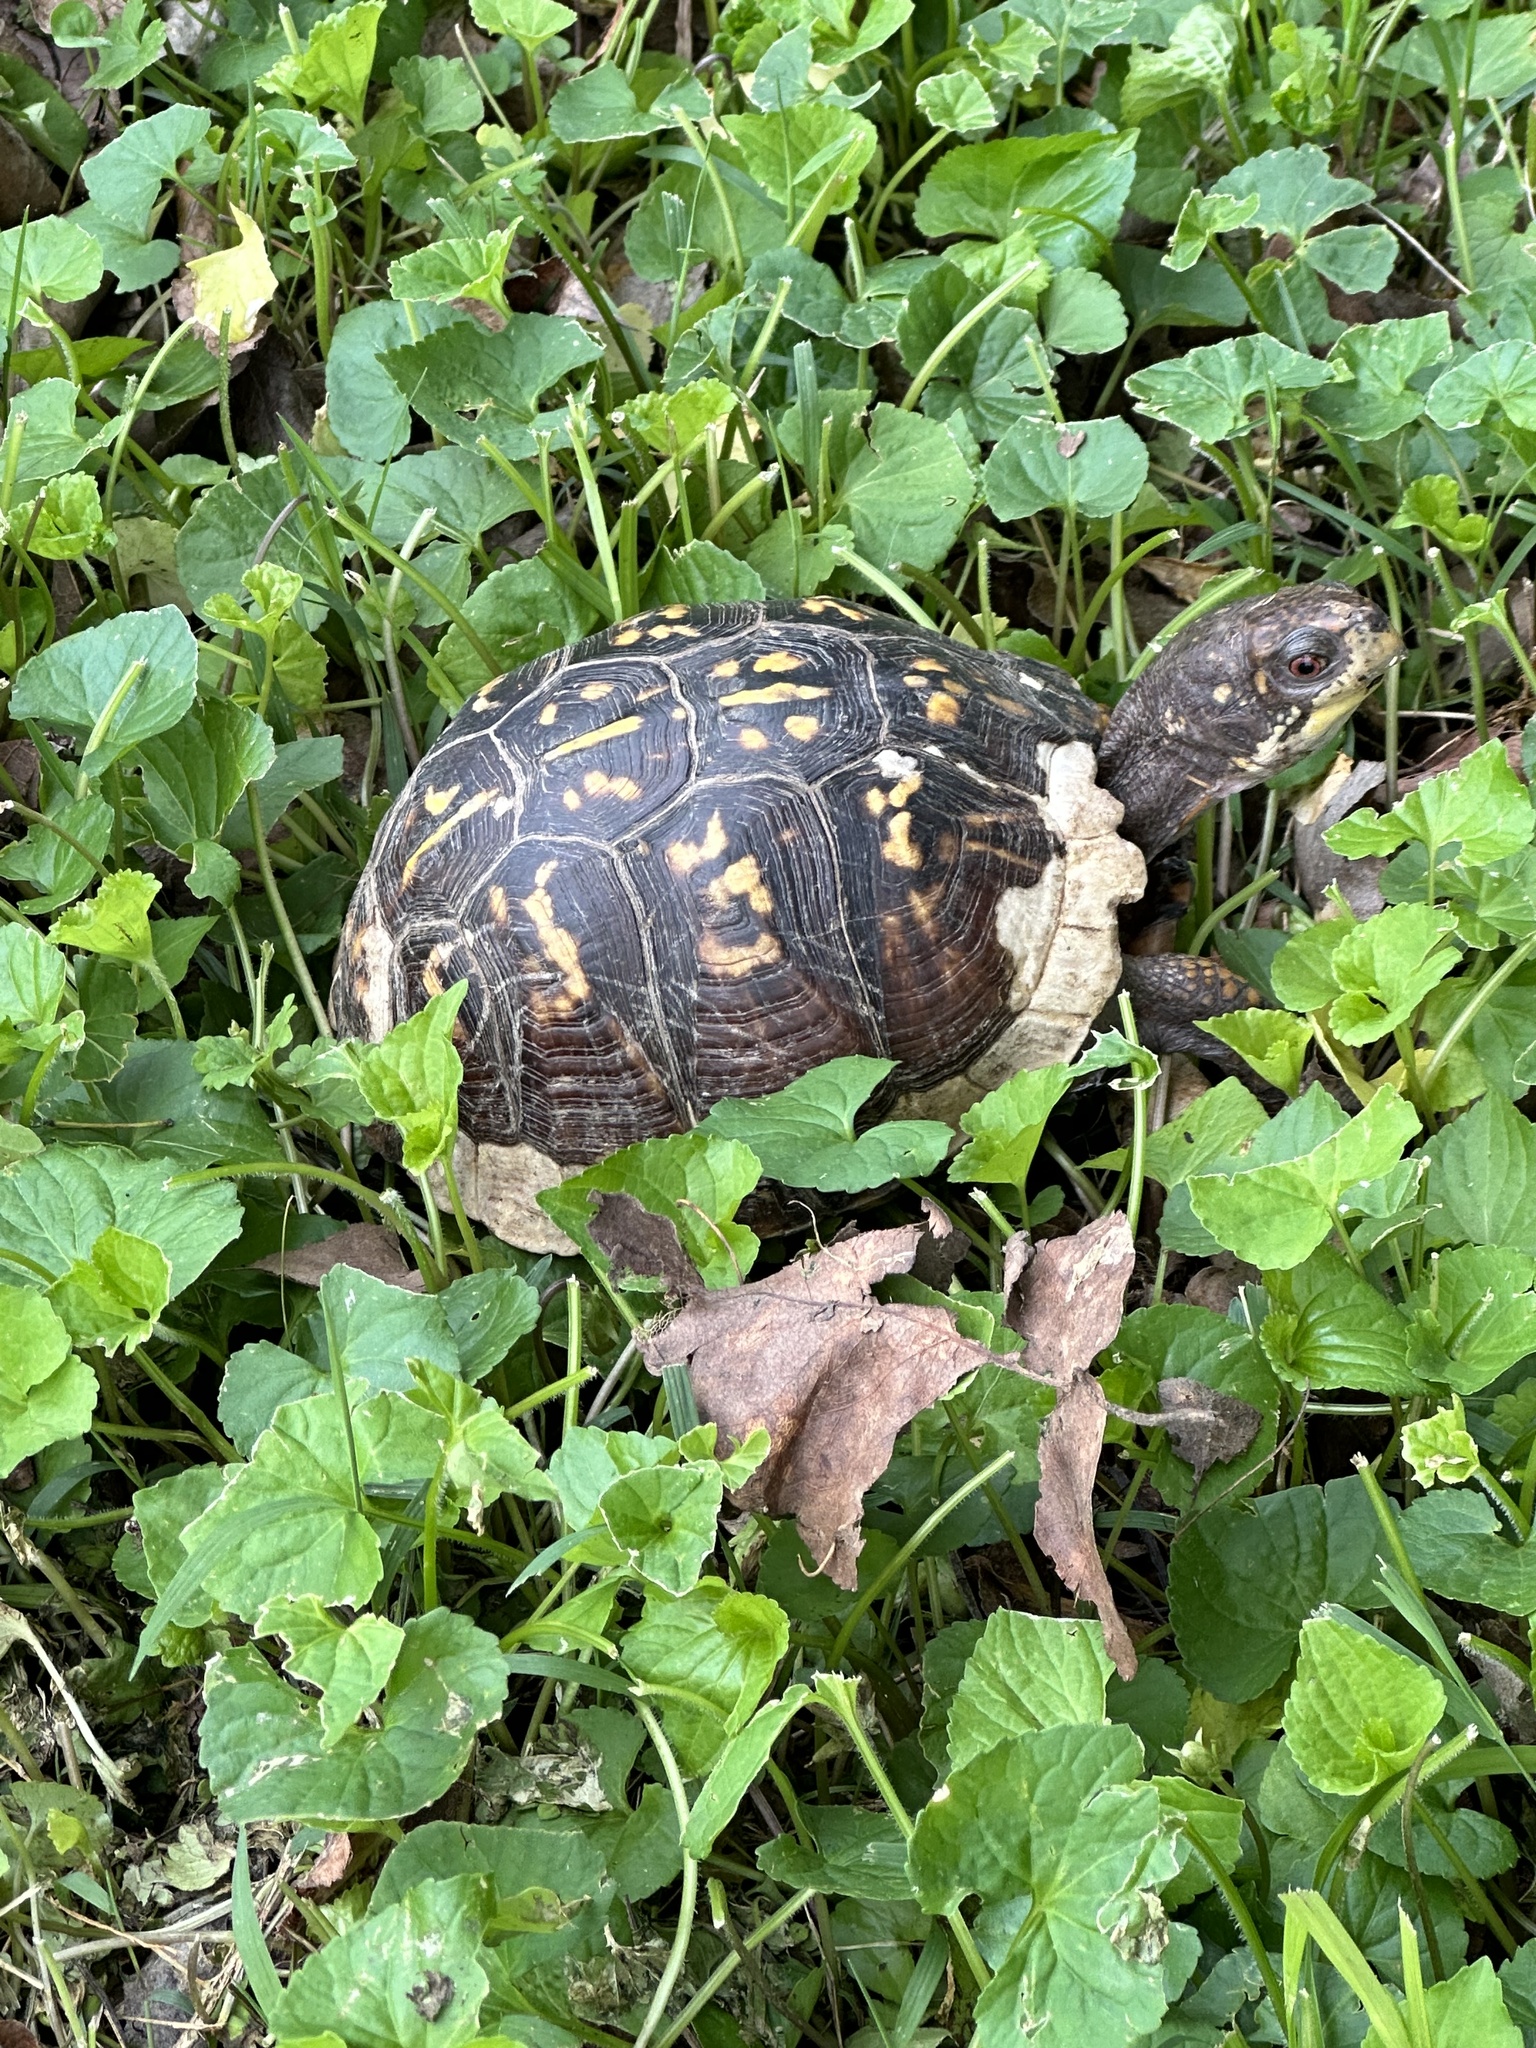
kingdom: Animalia
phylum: Chordata
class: Testudines
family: Emydidae
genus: Terrapene
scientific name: Terrapene carolina
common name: Common box turtle
